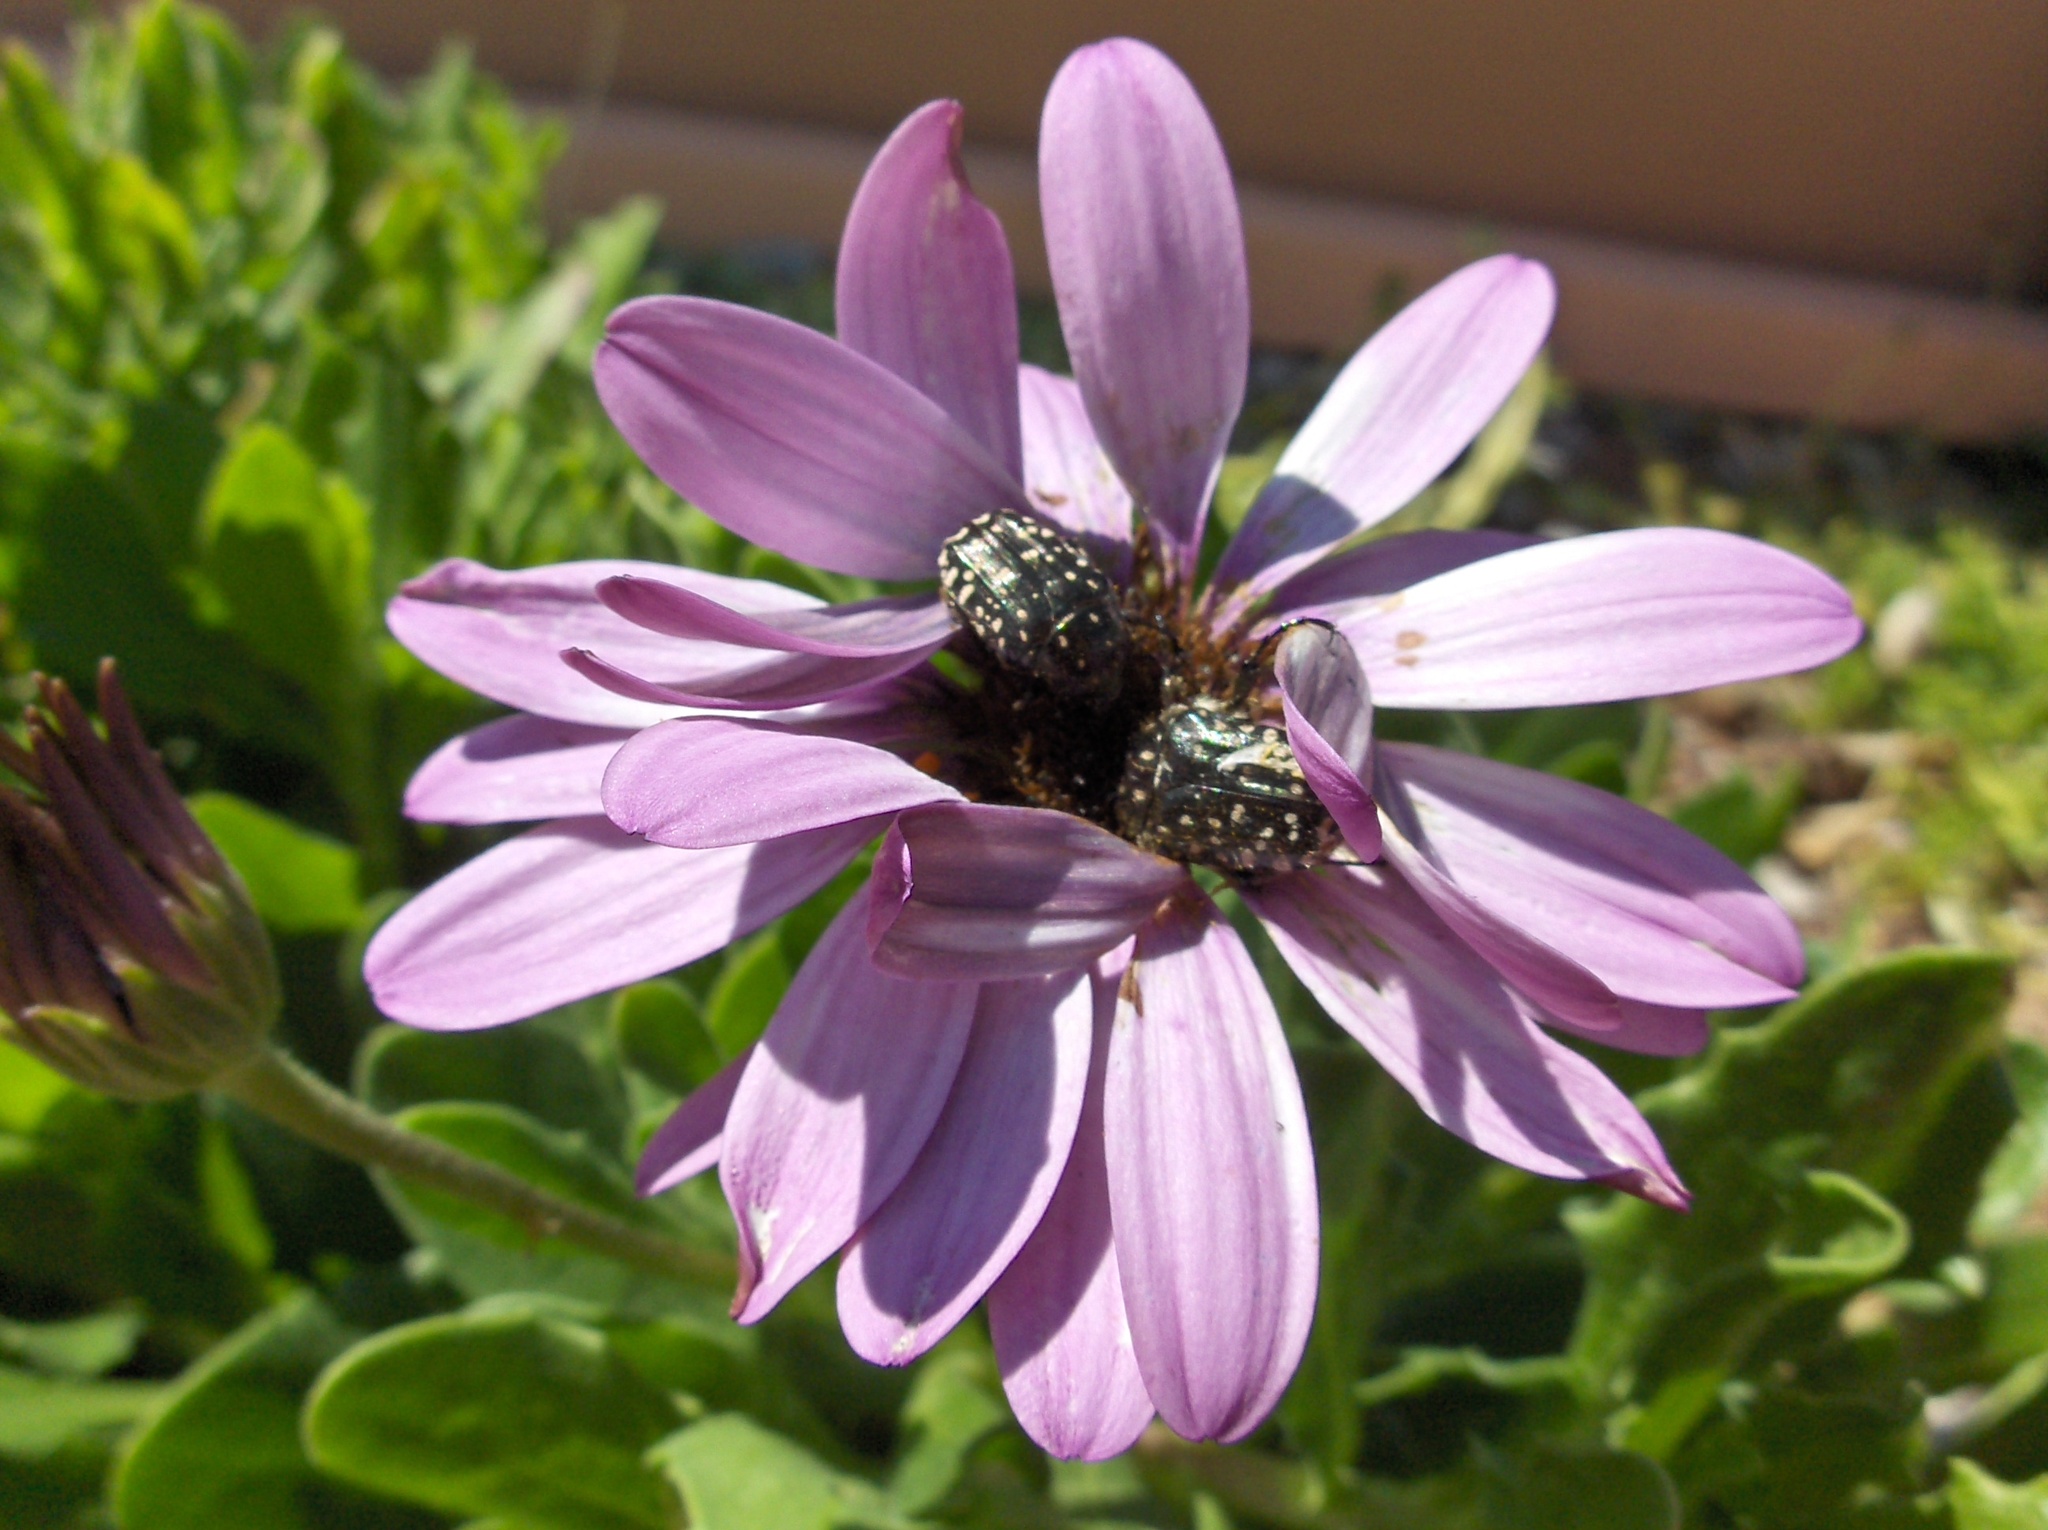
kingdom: Animalia
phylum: Arthropoda
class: Insecta
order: Coleoptera
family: Scarabaeidae
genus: Oxythyrea
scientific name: Oxythyrea funesta
